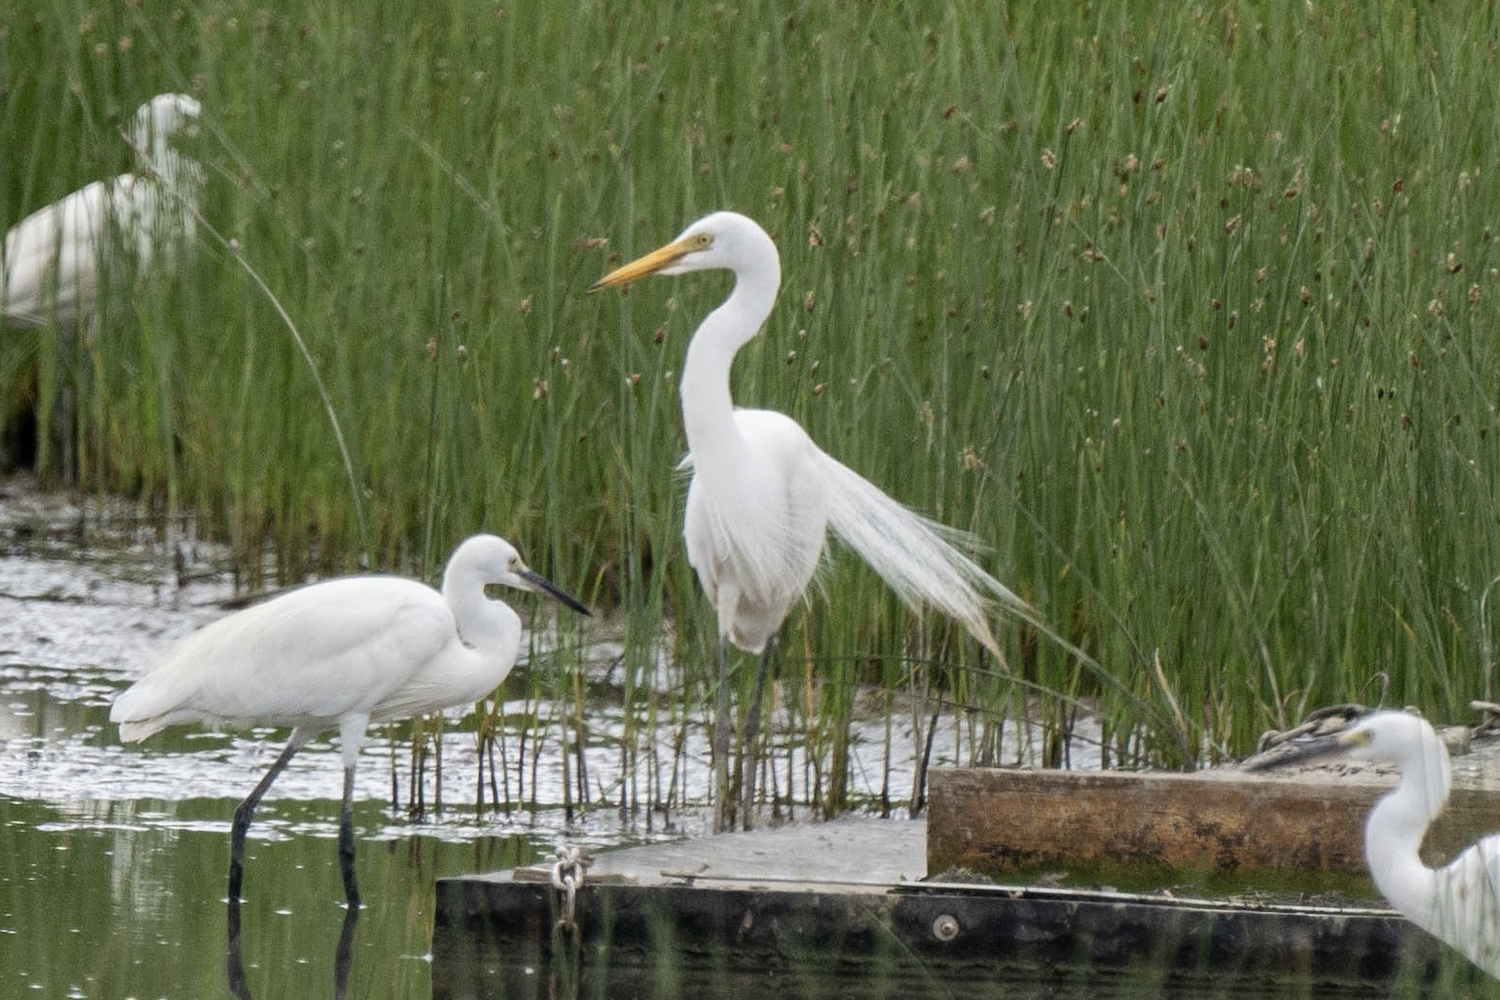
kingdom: Animalia
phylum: Chordata
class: Aves
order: Pelecaniformes
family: Ardeidae
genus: Egretta
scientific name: Egretta intermedia
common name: Intermediate egret
